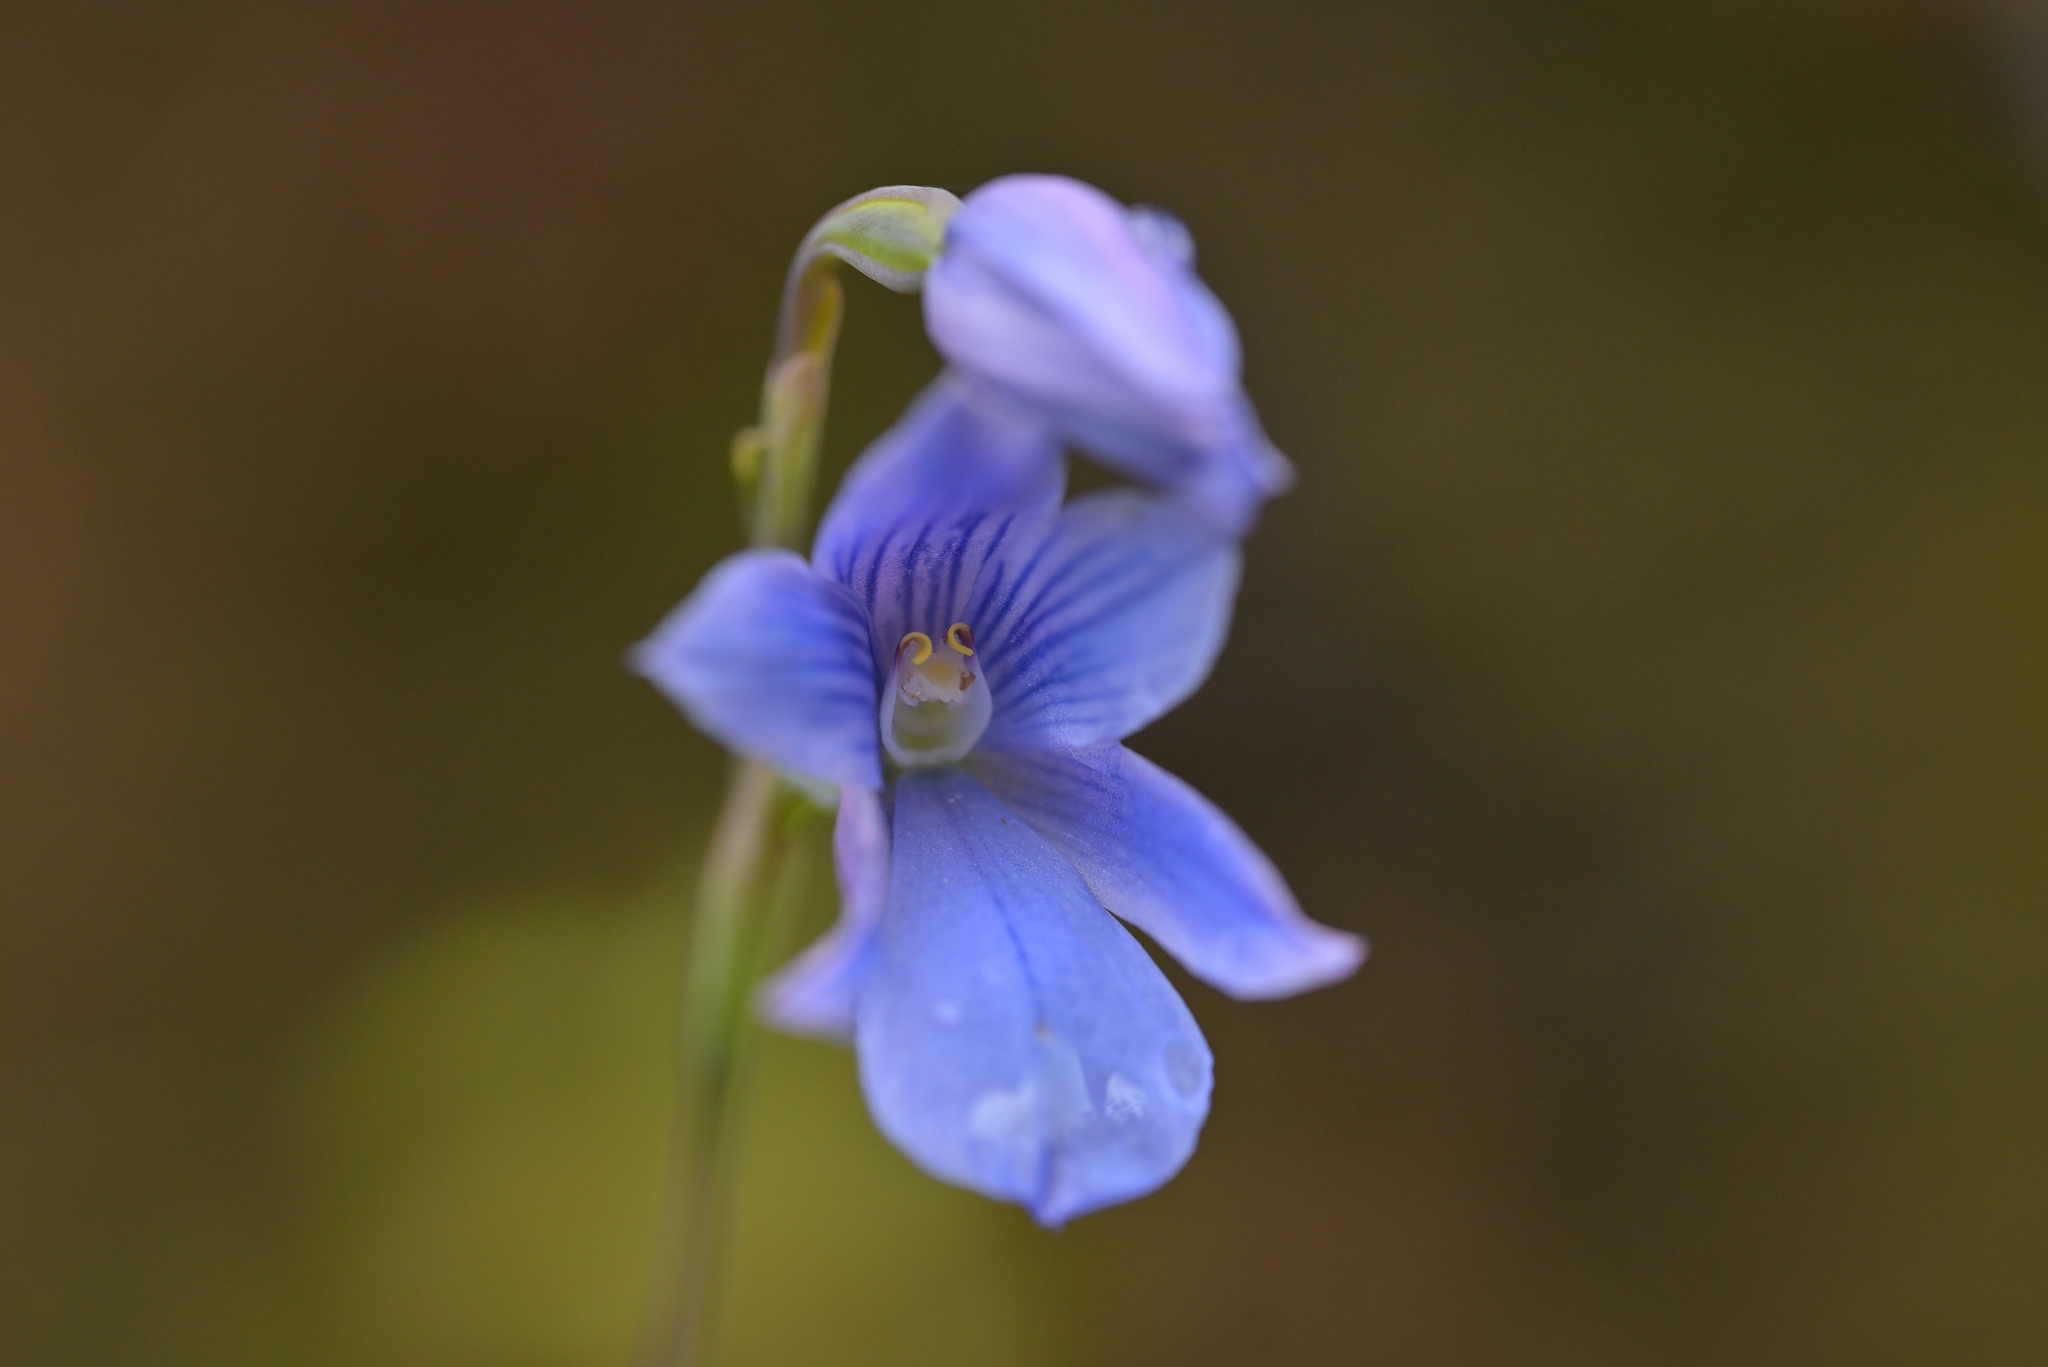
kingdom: Plantae
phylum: Tracheophyta
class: Liliopsida
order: Asparagales
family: Orchidaceae
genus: Thelymitra
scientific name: Thelymitra cyanea
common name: Blue sun-orchid
